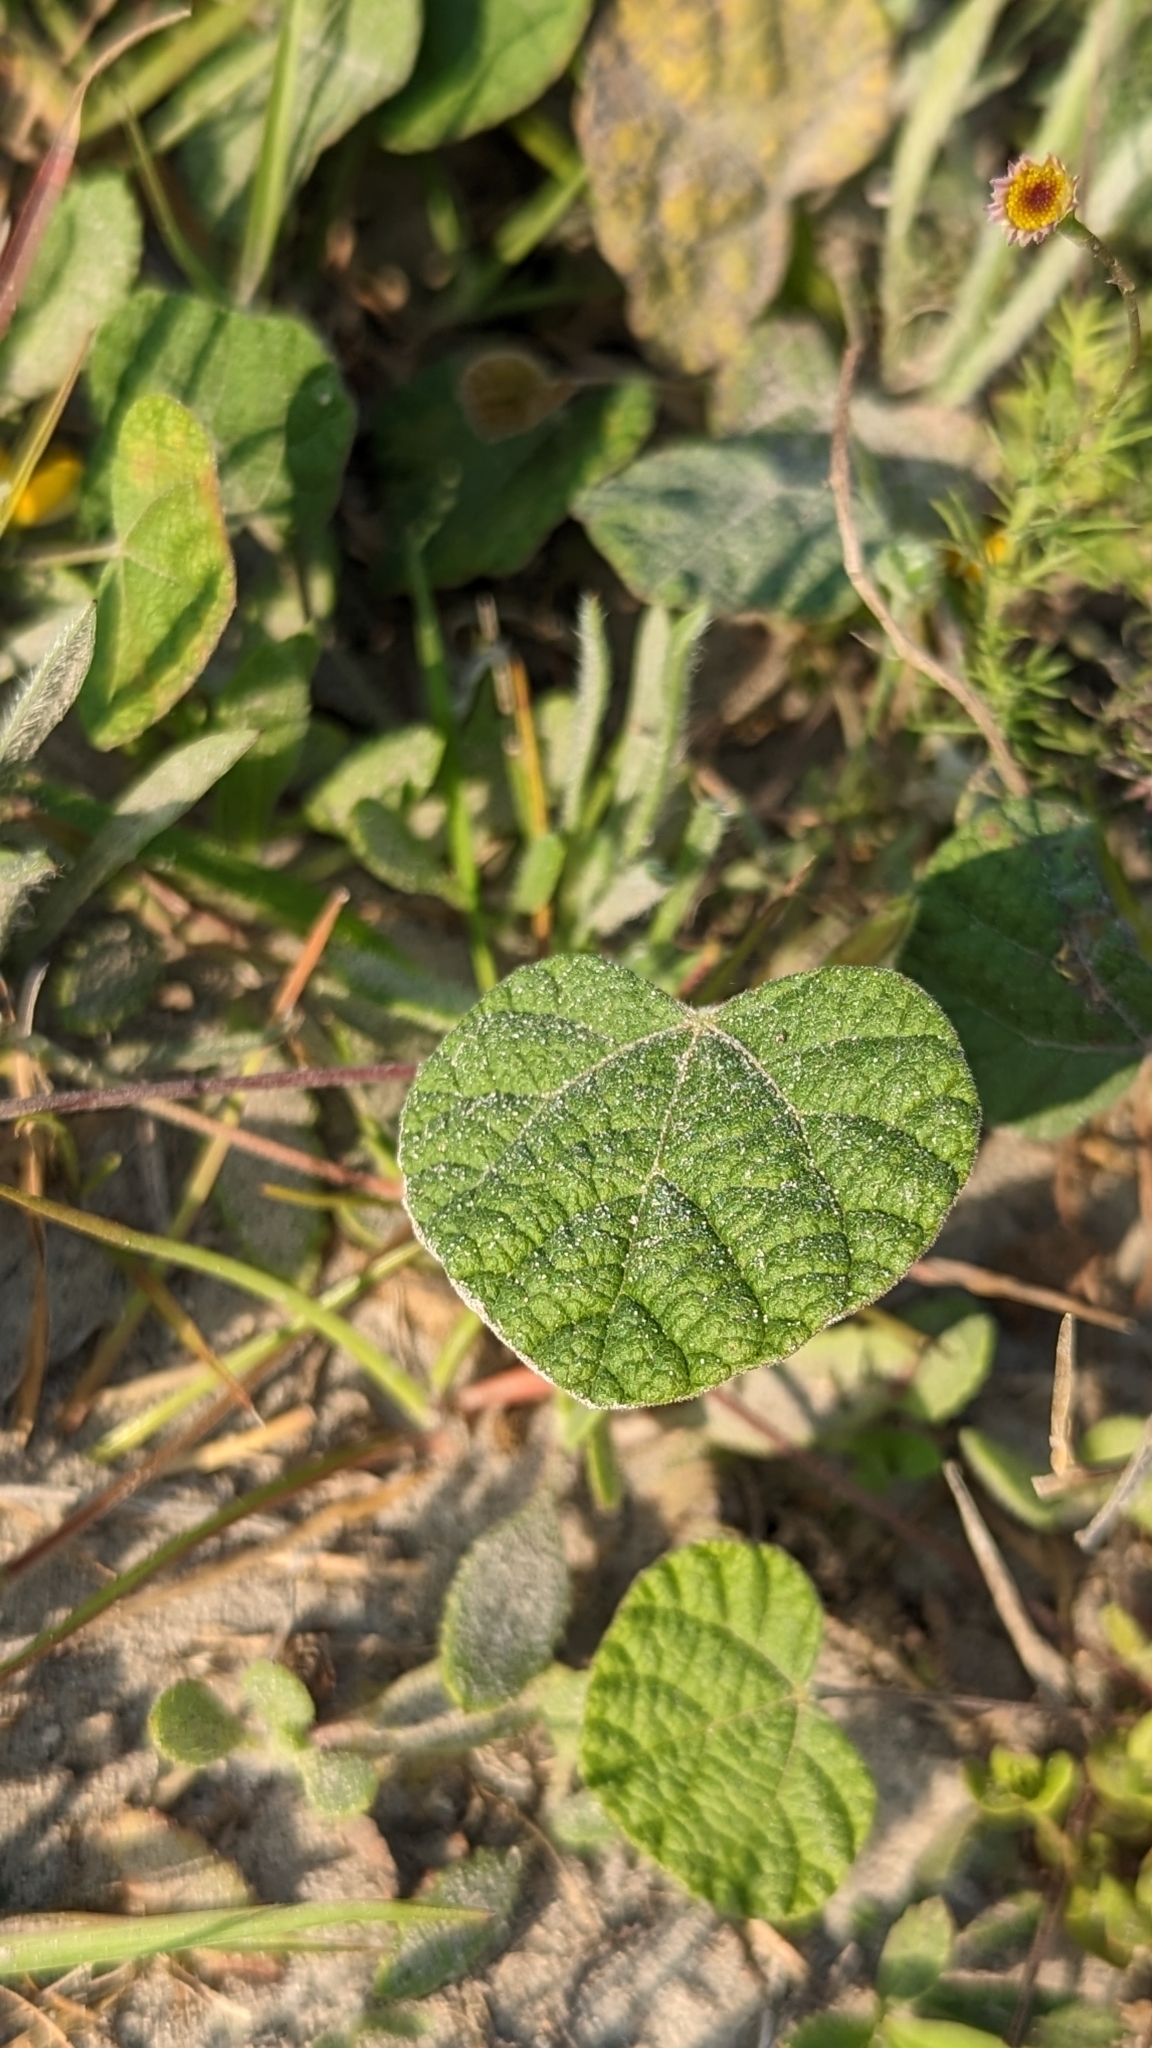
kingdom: Plantae
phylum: Tracheophyta
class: Magnoliopsida
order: Fabales
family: Fabaceae
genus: Rhynchosia
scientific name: Rhynchosia americana
